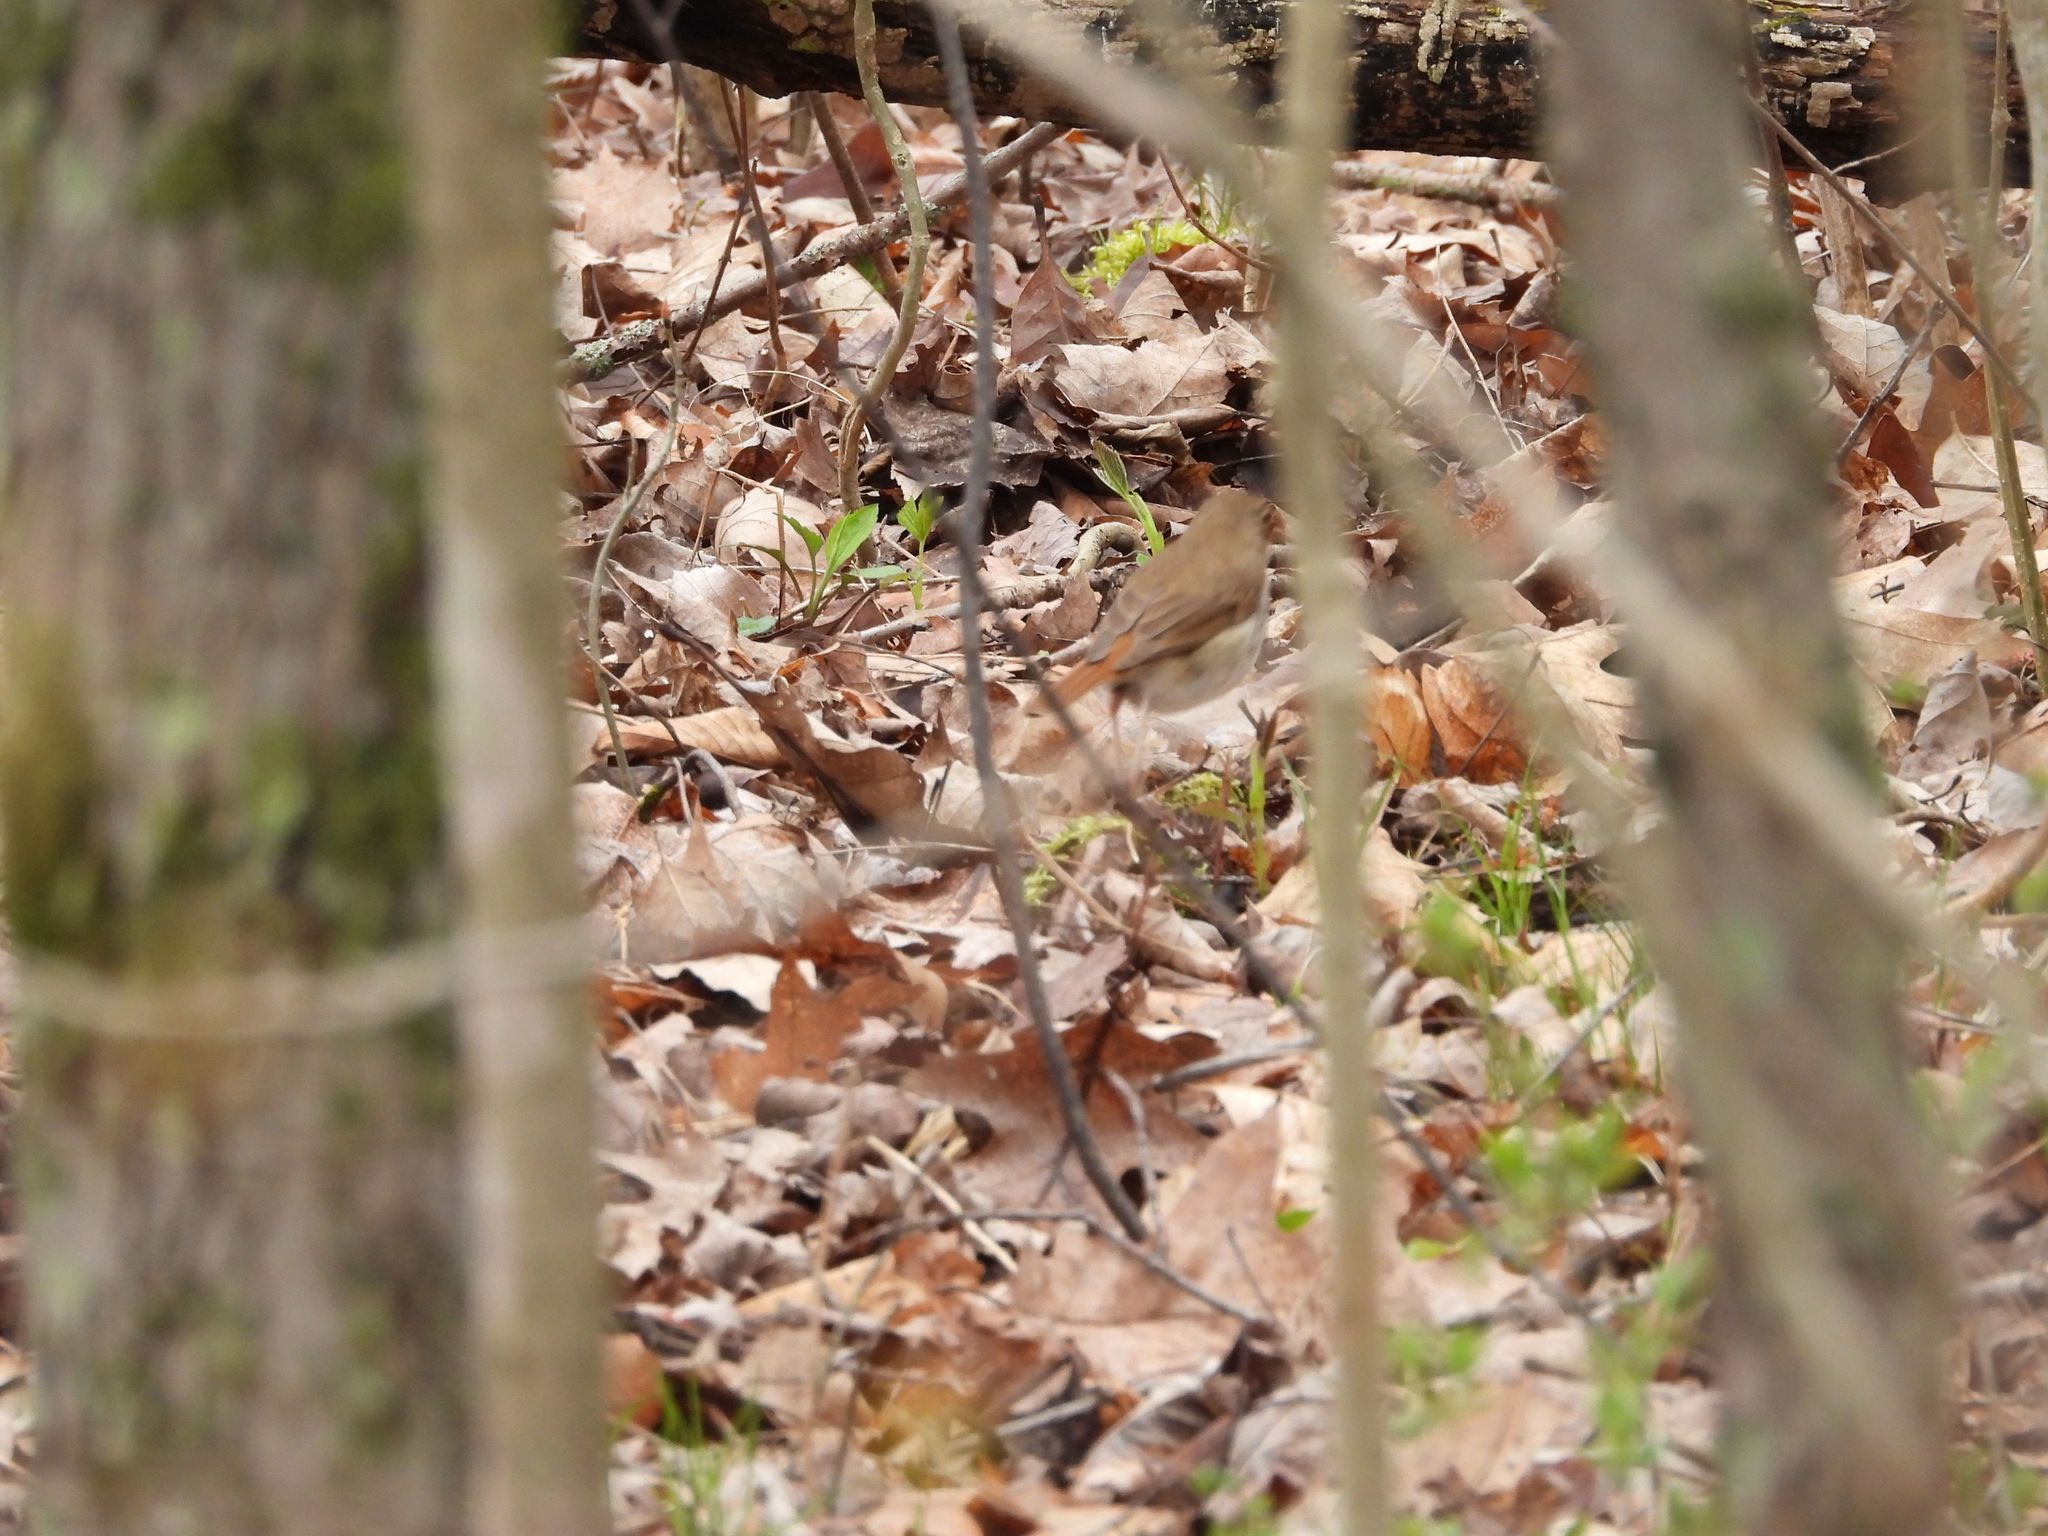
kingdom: Animalia
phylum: Chordata
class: Aves
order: Passeriformes
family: Turdidae
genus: Catharus
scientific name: Catharus guttatus
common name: Hermit thrush
